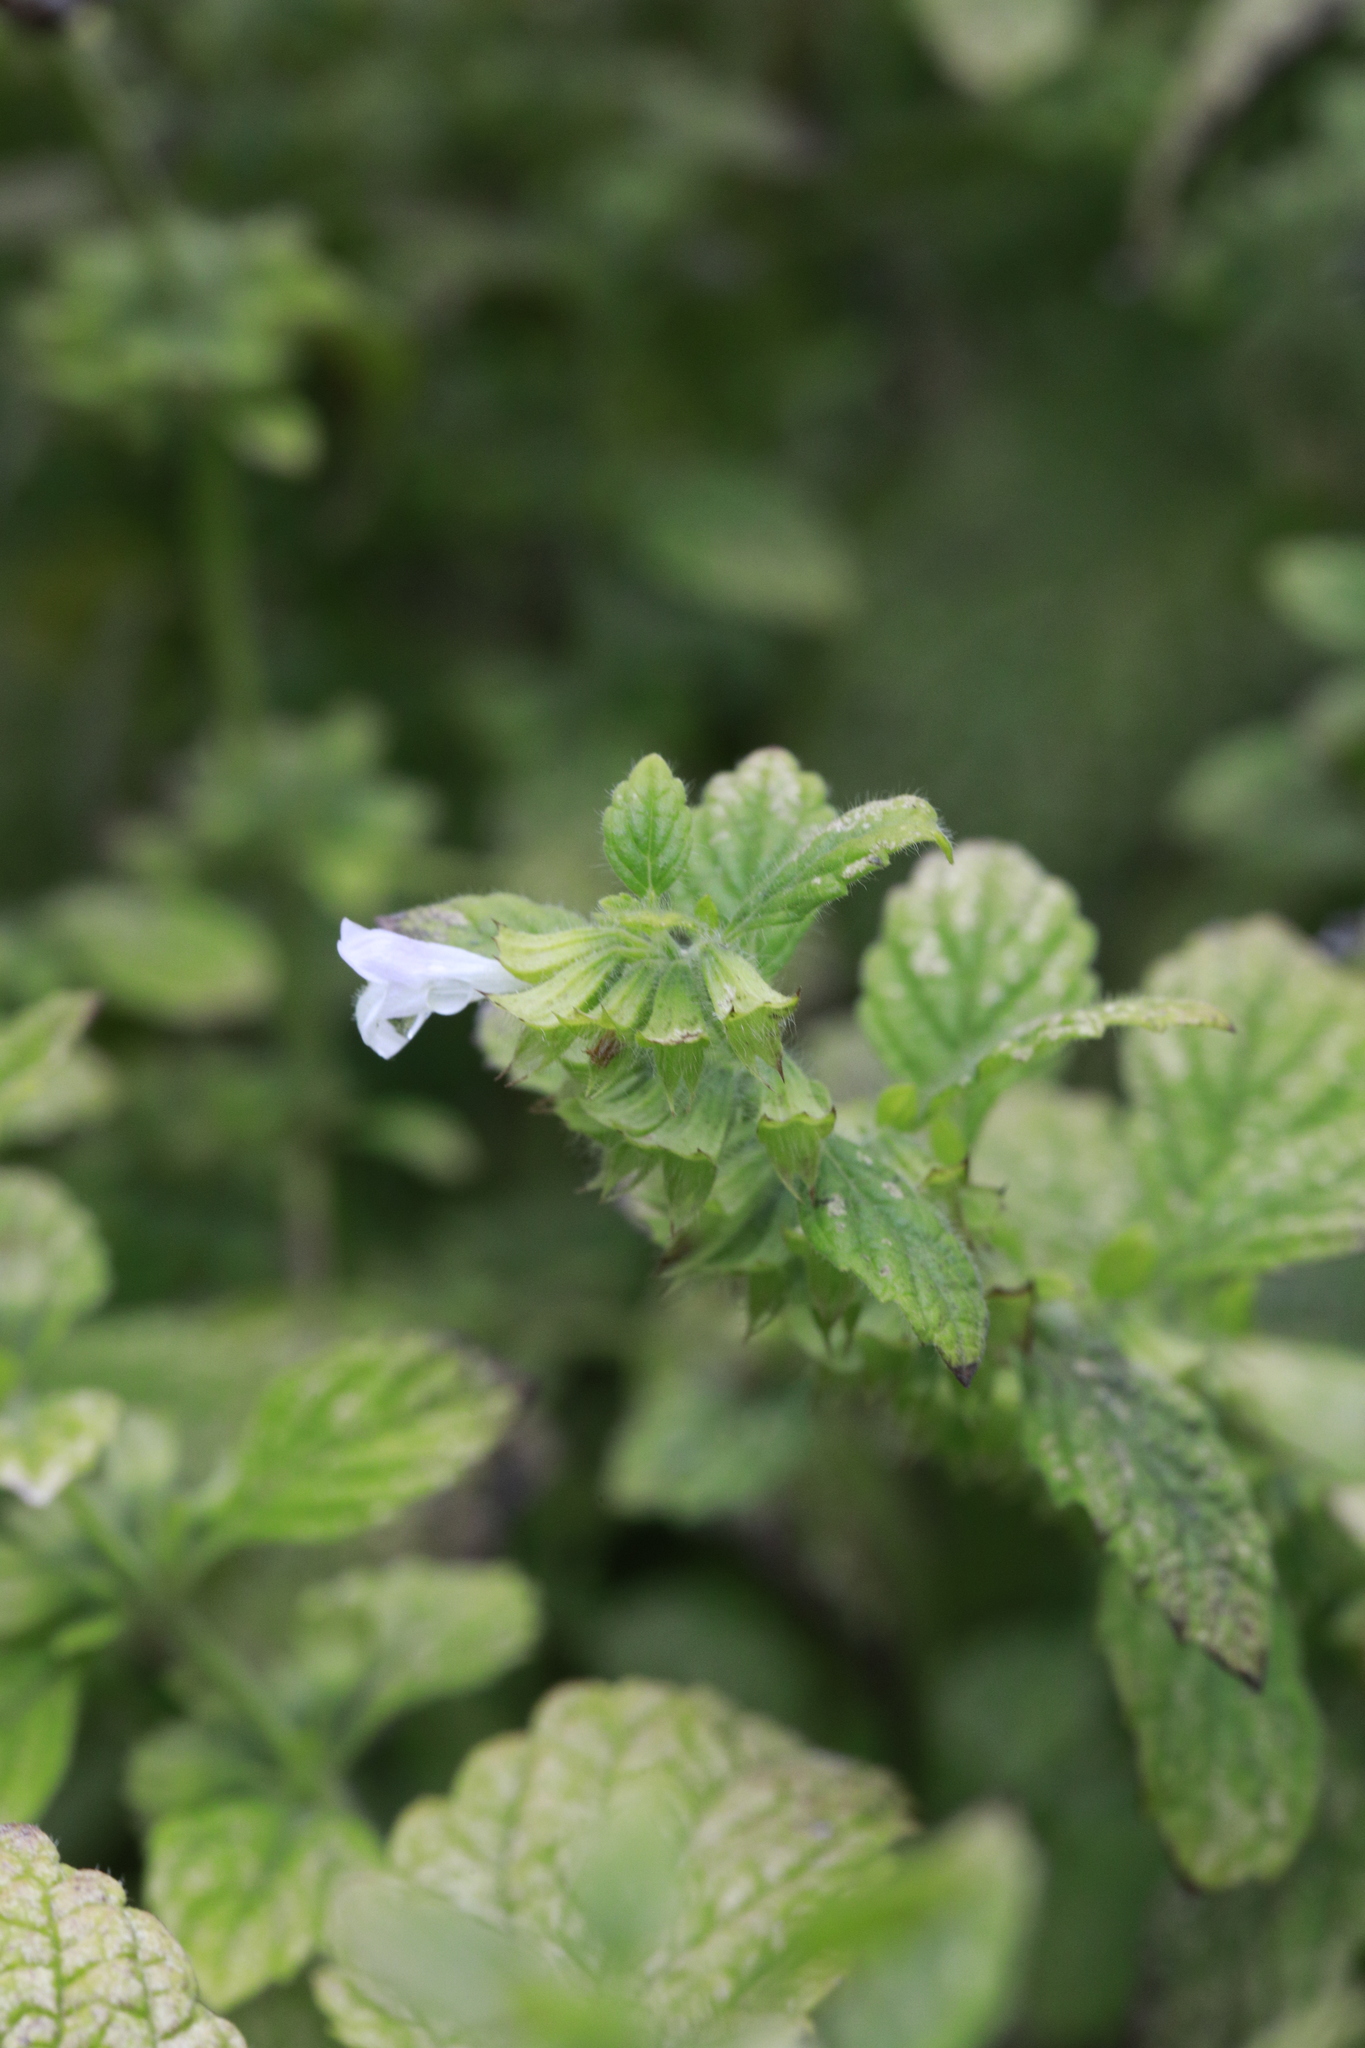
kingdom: Plantae
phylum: Tracheophyta
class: Magnoliopsida
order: Lamiales
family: Lamiaceae
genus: Melissa
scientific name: Melissa officinalis
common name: Balm
